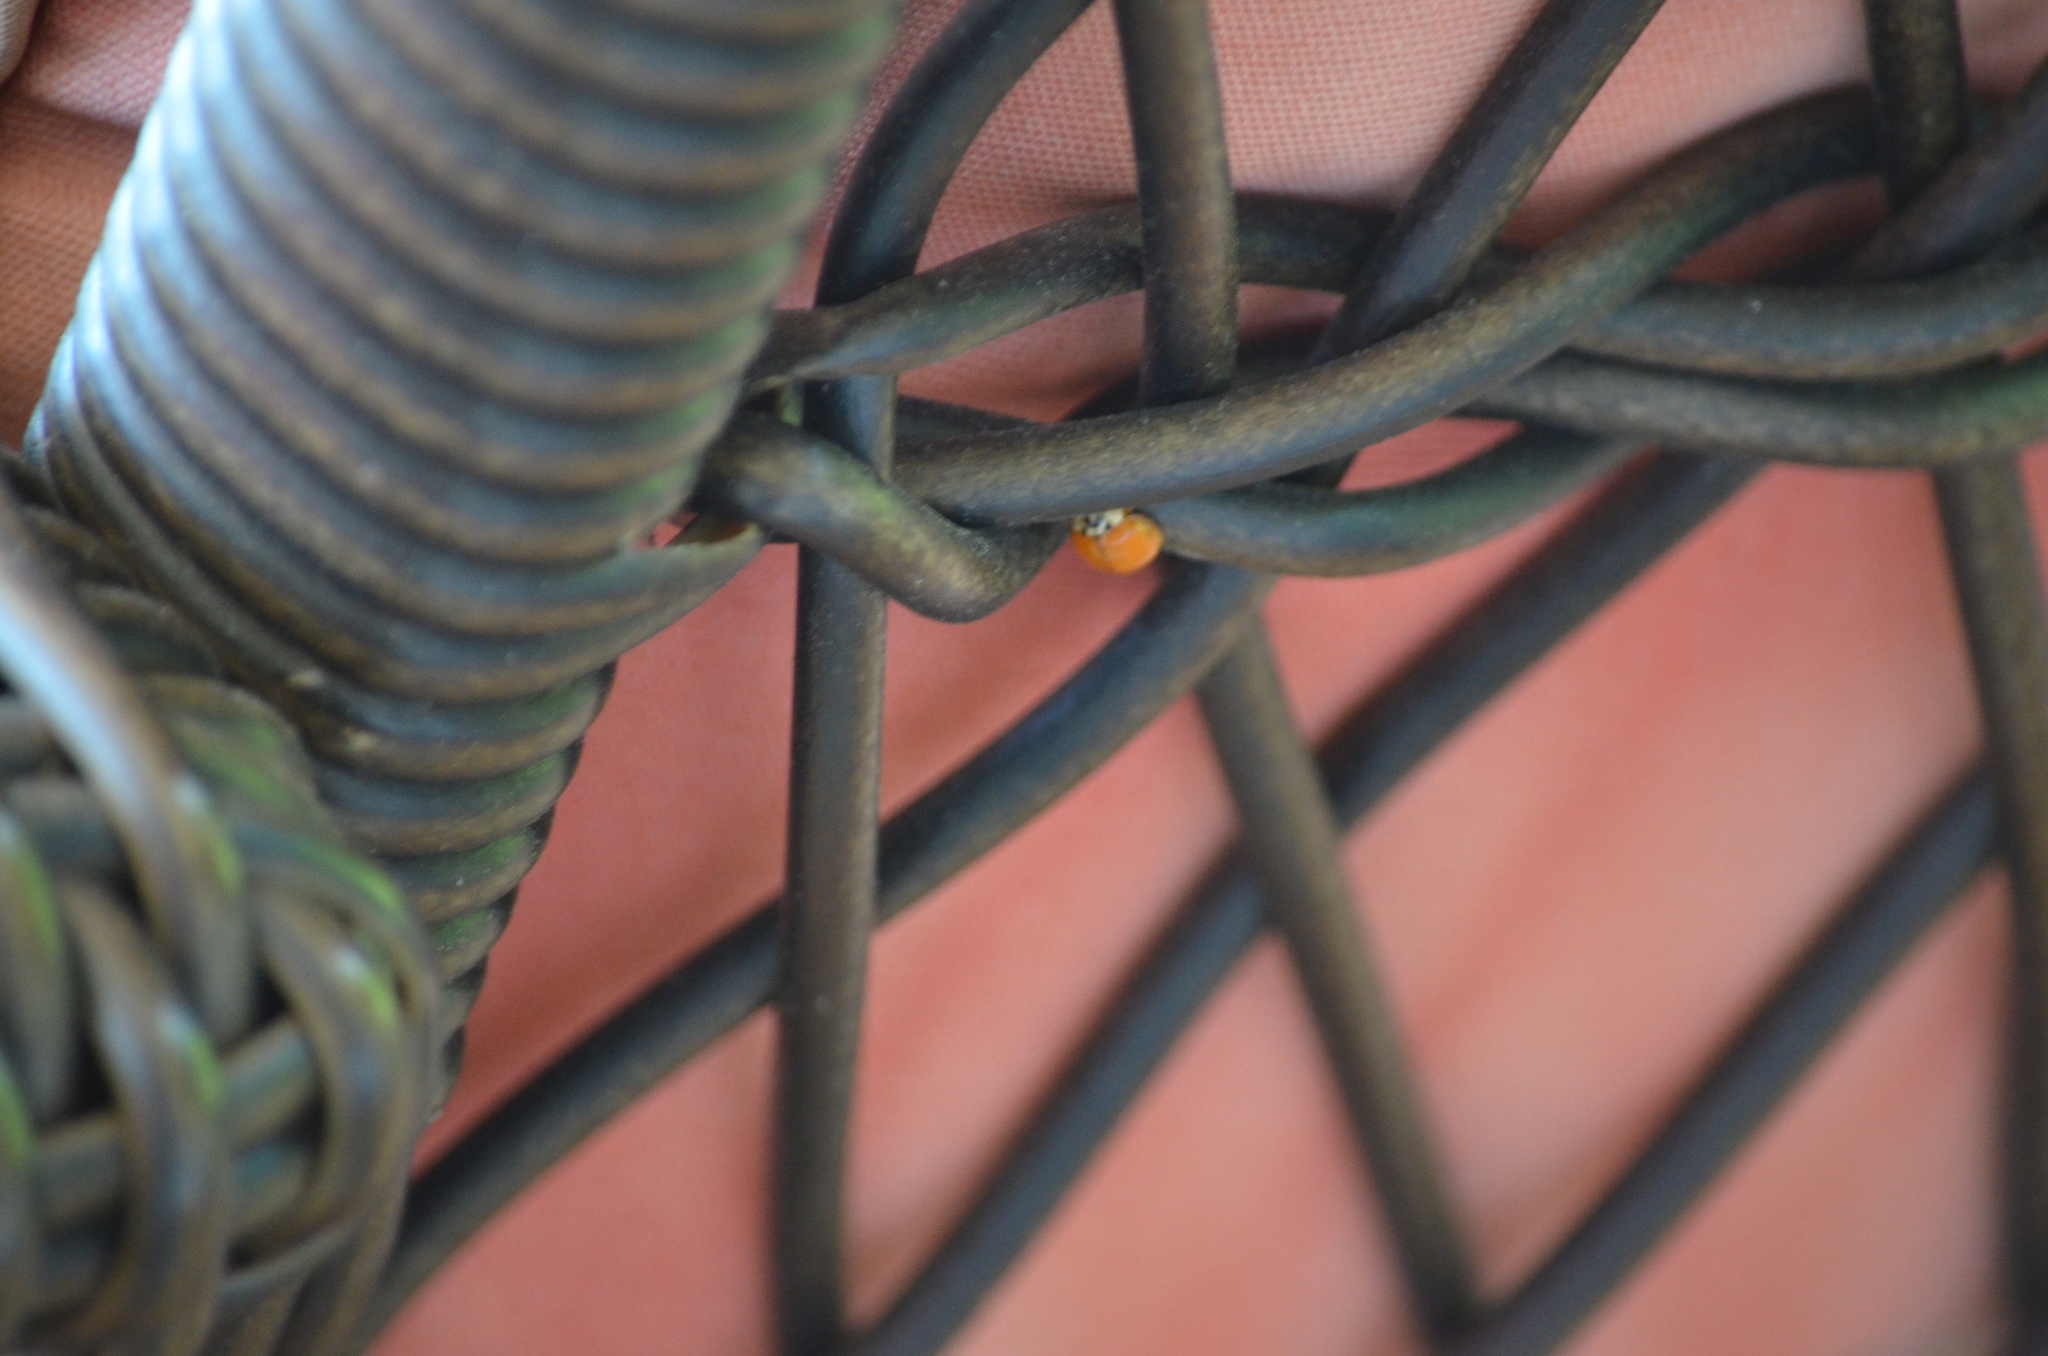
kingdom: Animalia
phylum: Arthropoda
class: Insecta
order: Coleoptera
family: Coccinellidae
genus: Harmonia
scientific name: Harmonia axyridis
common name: Harlequin ladybird
